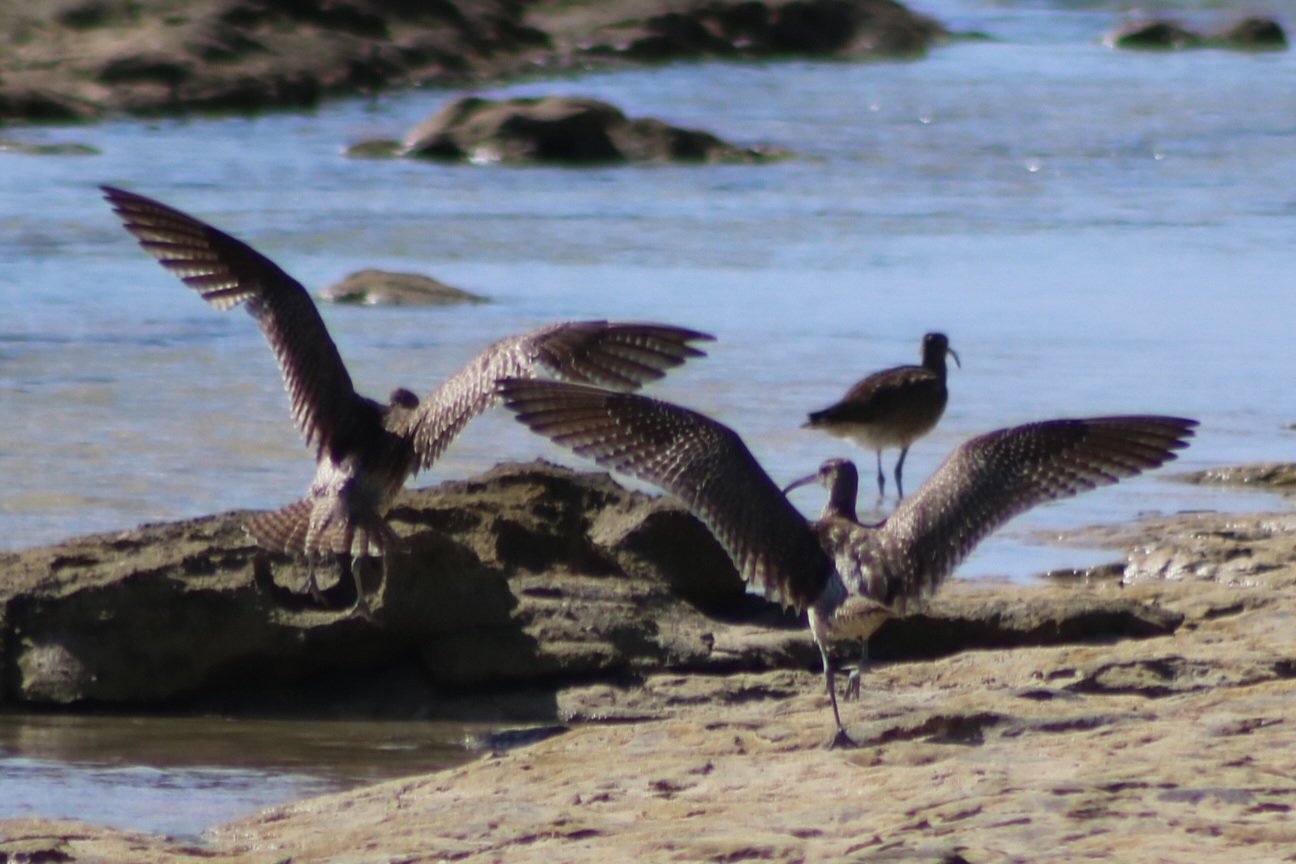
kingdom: Animalia
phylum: Chordata
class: Aves
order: Charadriiformes
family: Scolopacidae
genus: Numenius
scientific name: Numenius phaeopus
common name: Whimbrel
